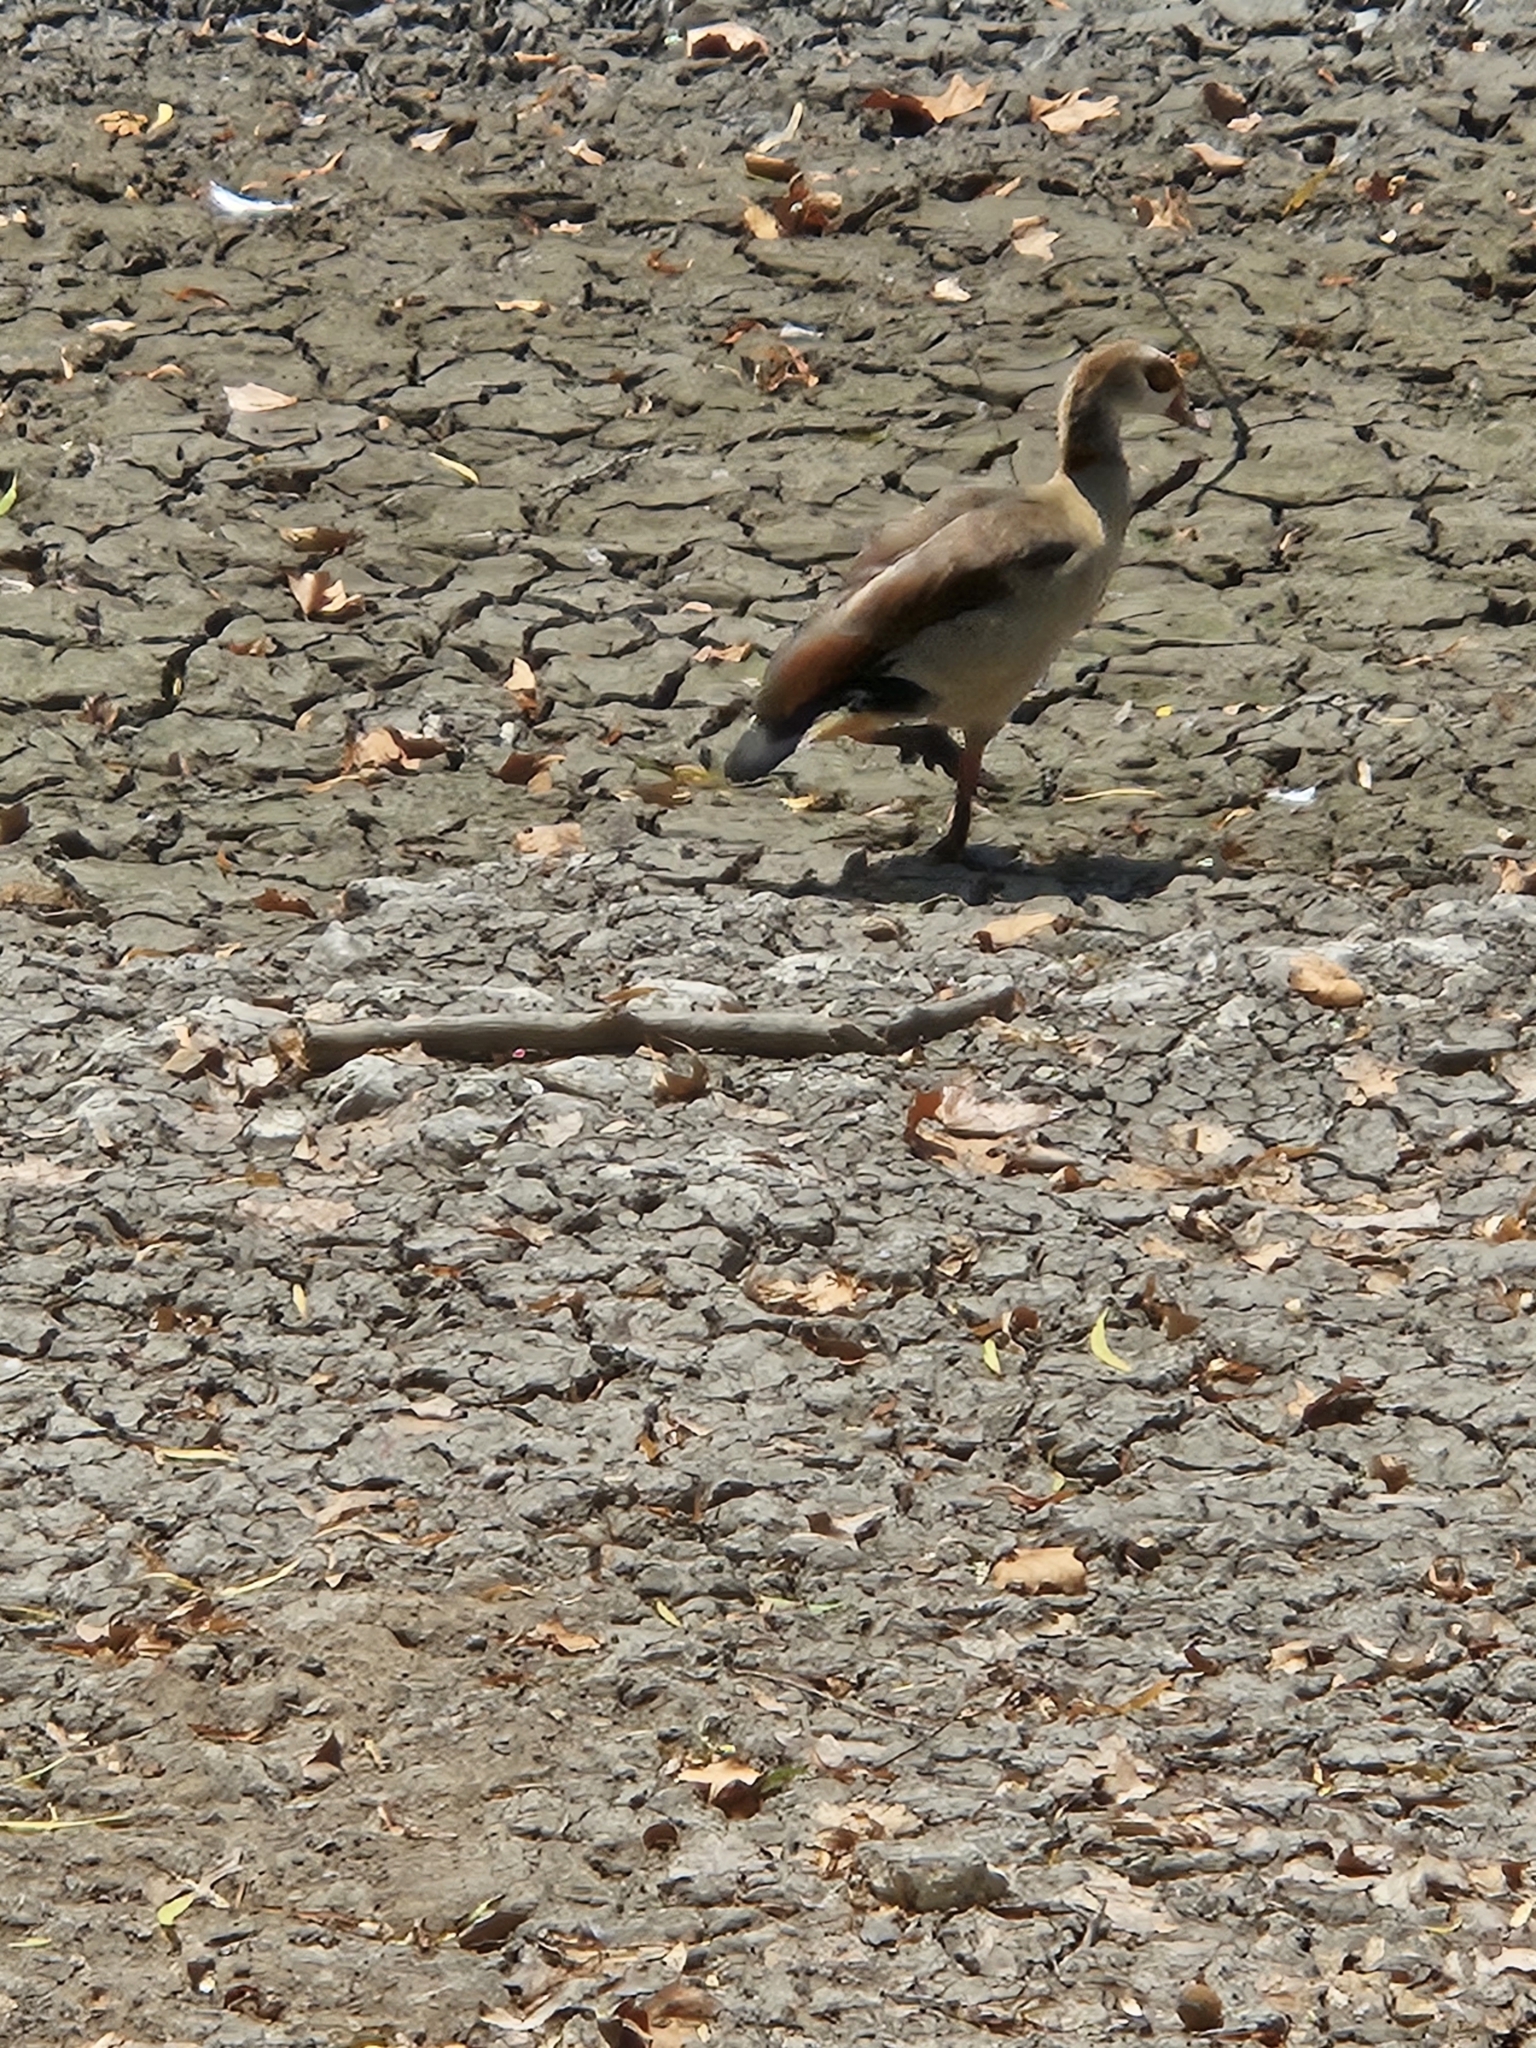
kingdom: Animalia
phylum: Chordata
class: Aves
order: Anseriformes
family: Anatidae
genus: Alopochen
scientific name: Alopochen aegyptiaca
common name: Egyptian goose
